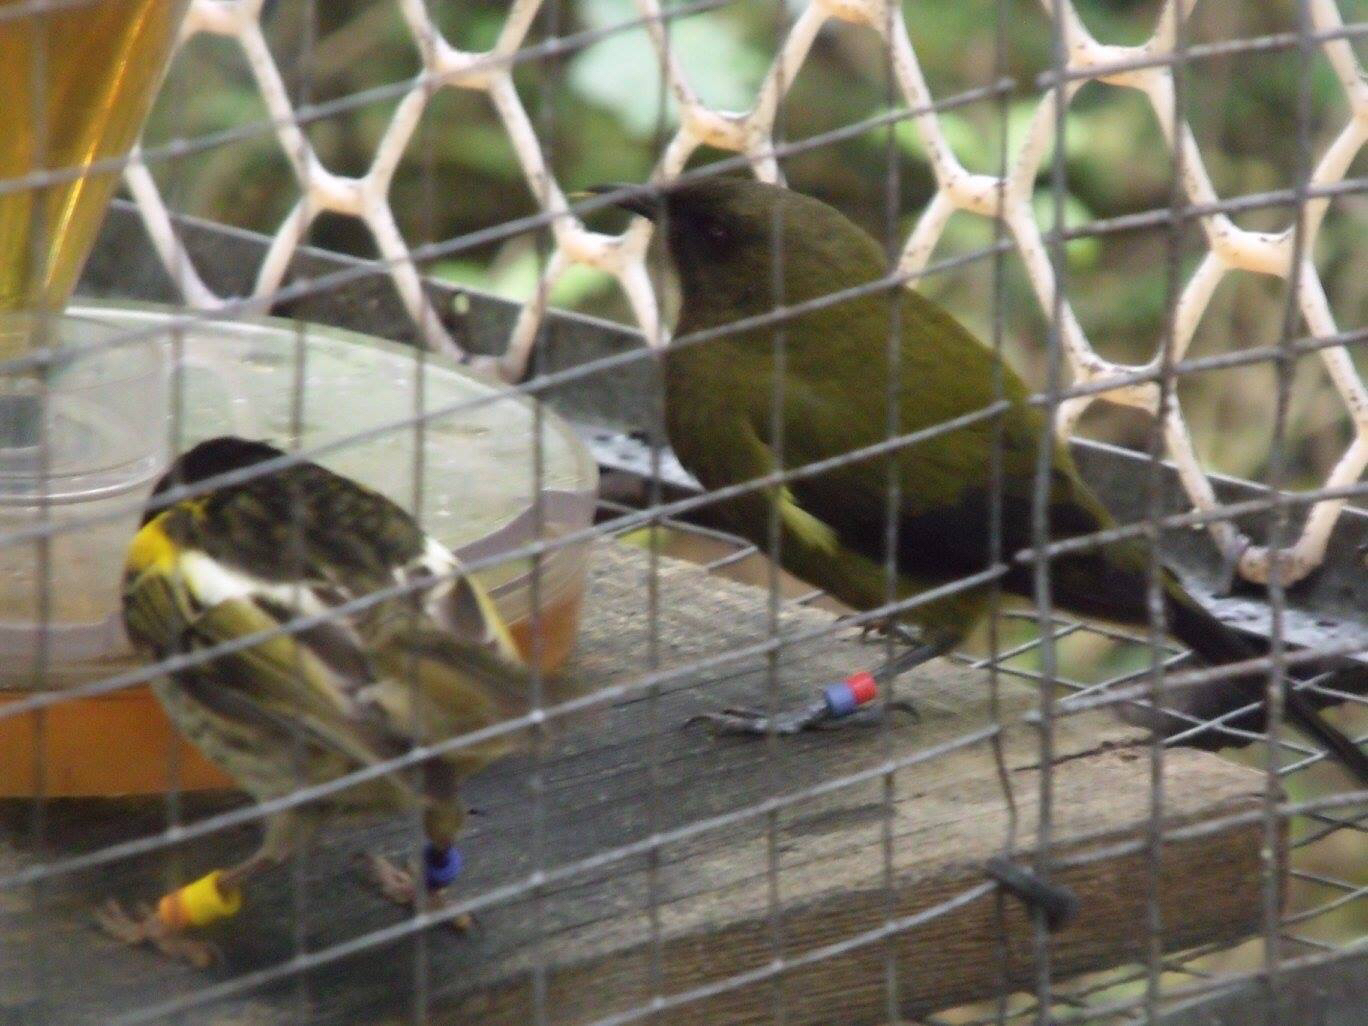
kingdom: Animalia
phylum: Chordata
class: Aves
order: Passeriformes
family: Meliphagidae
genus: Anthornis
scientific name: Anthornis melanura
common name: New zealand bellbird
